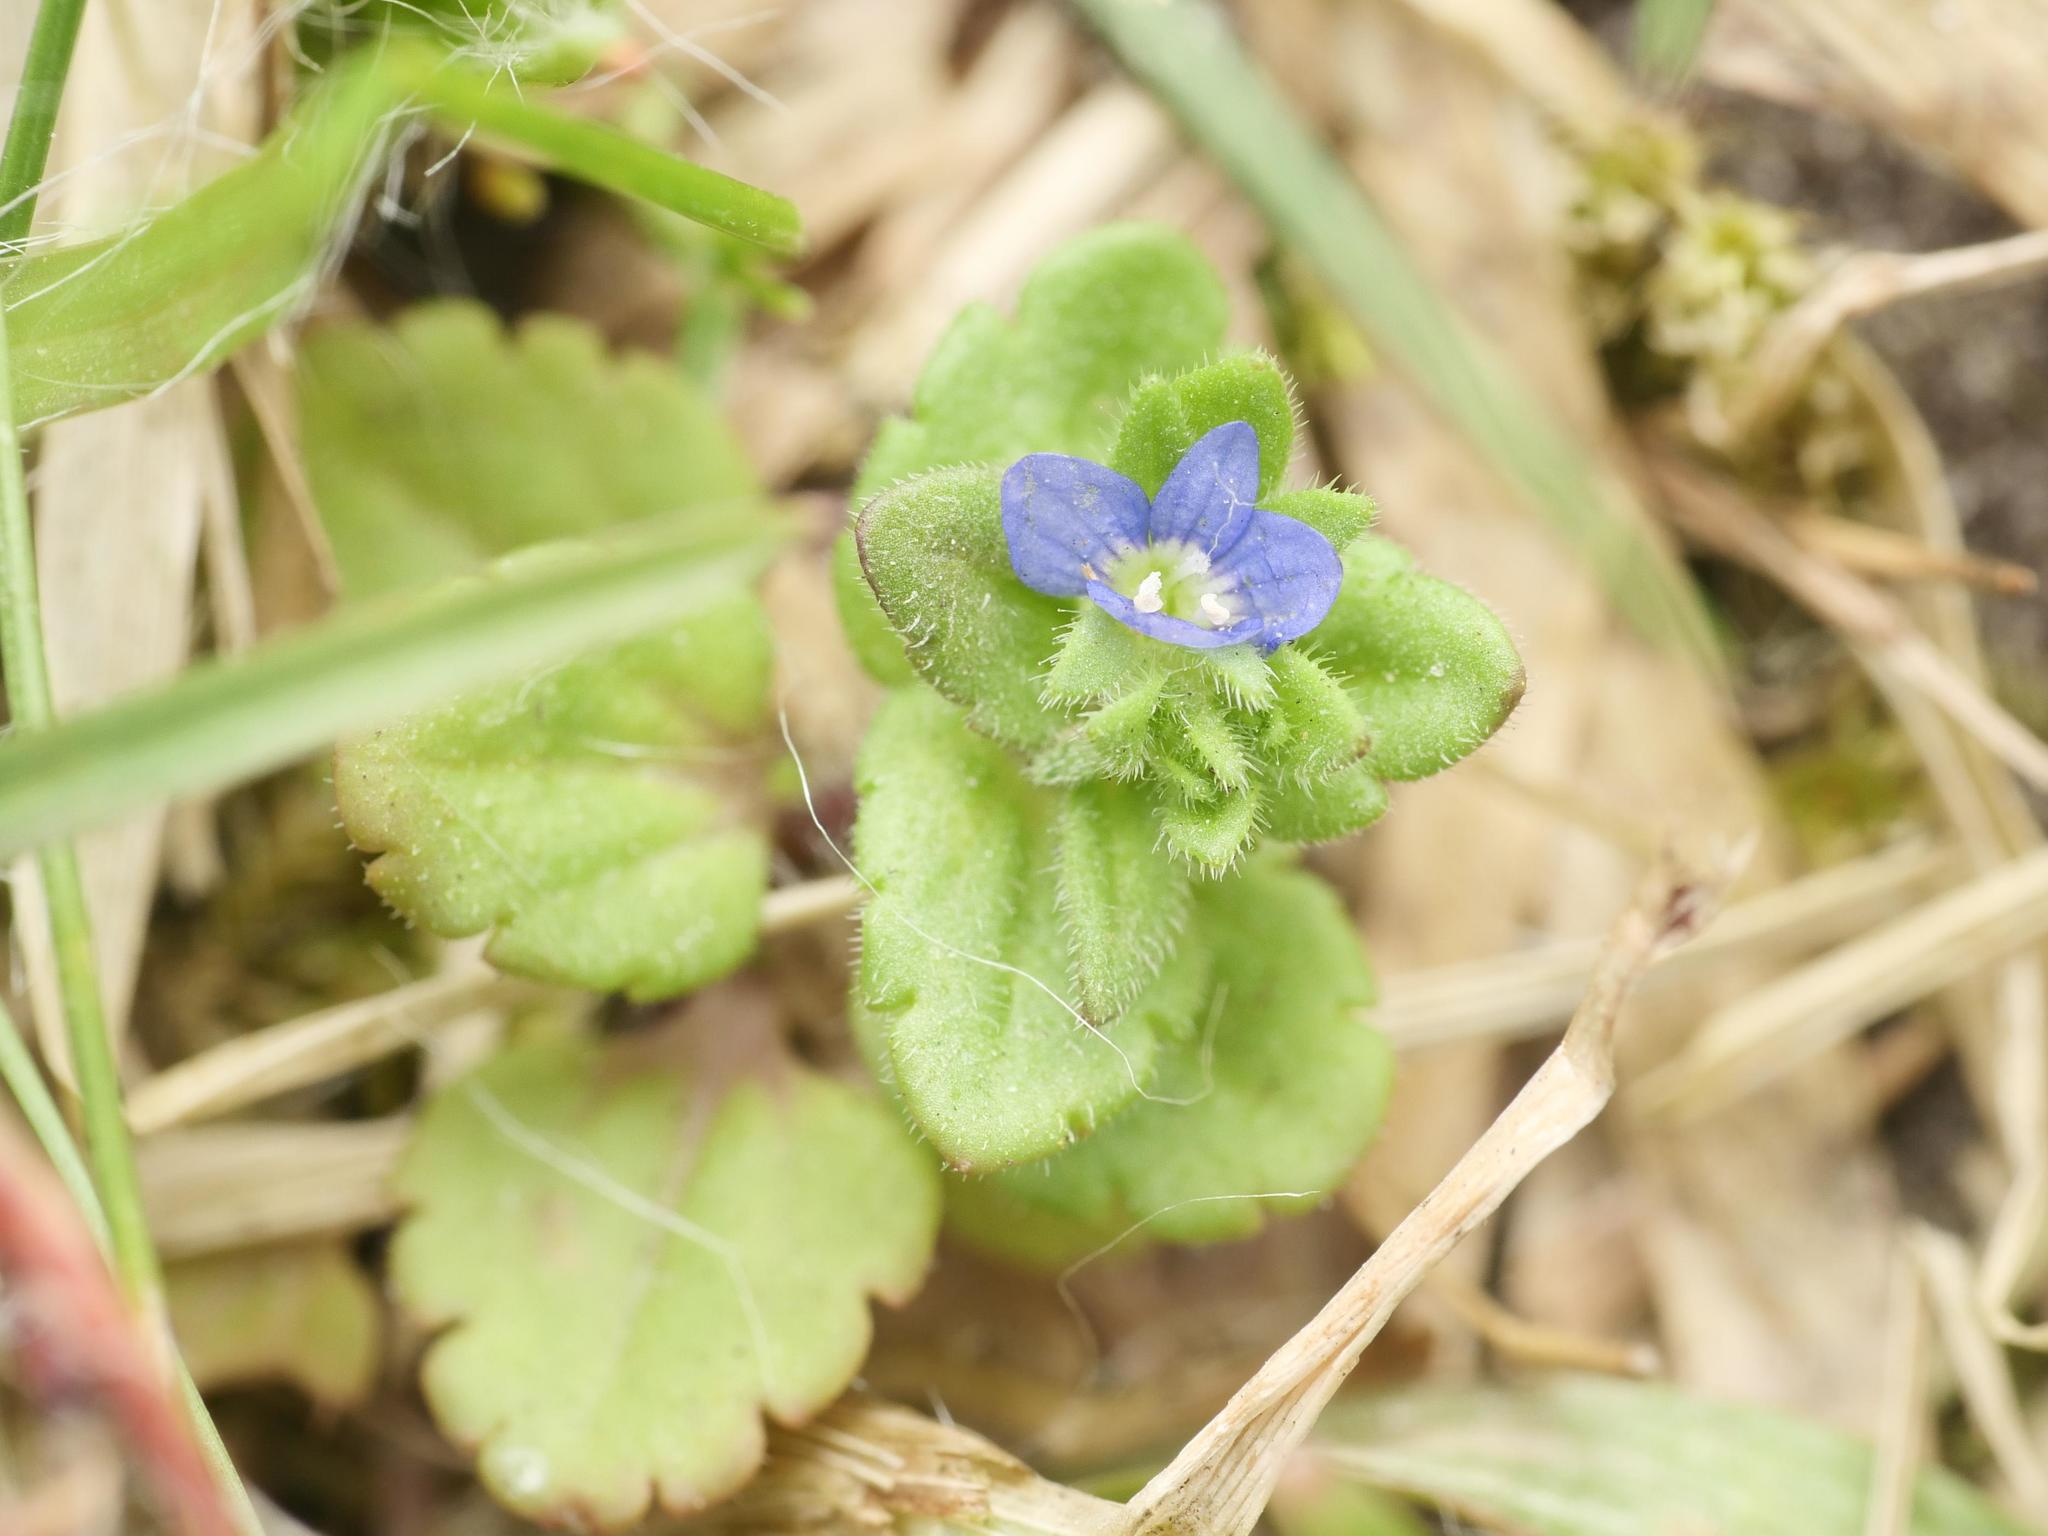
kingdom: Plantae
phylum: Tracheophyta
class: Magnoliopsida
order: Lamiales
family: Plantaginaceae
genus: Veronica
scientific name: Veronica arvensis
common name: Corn speedwell
